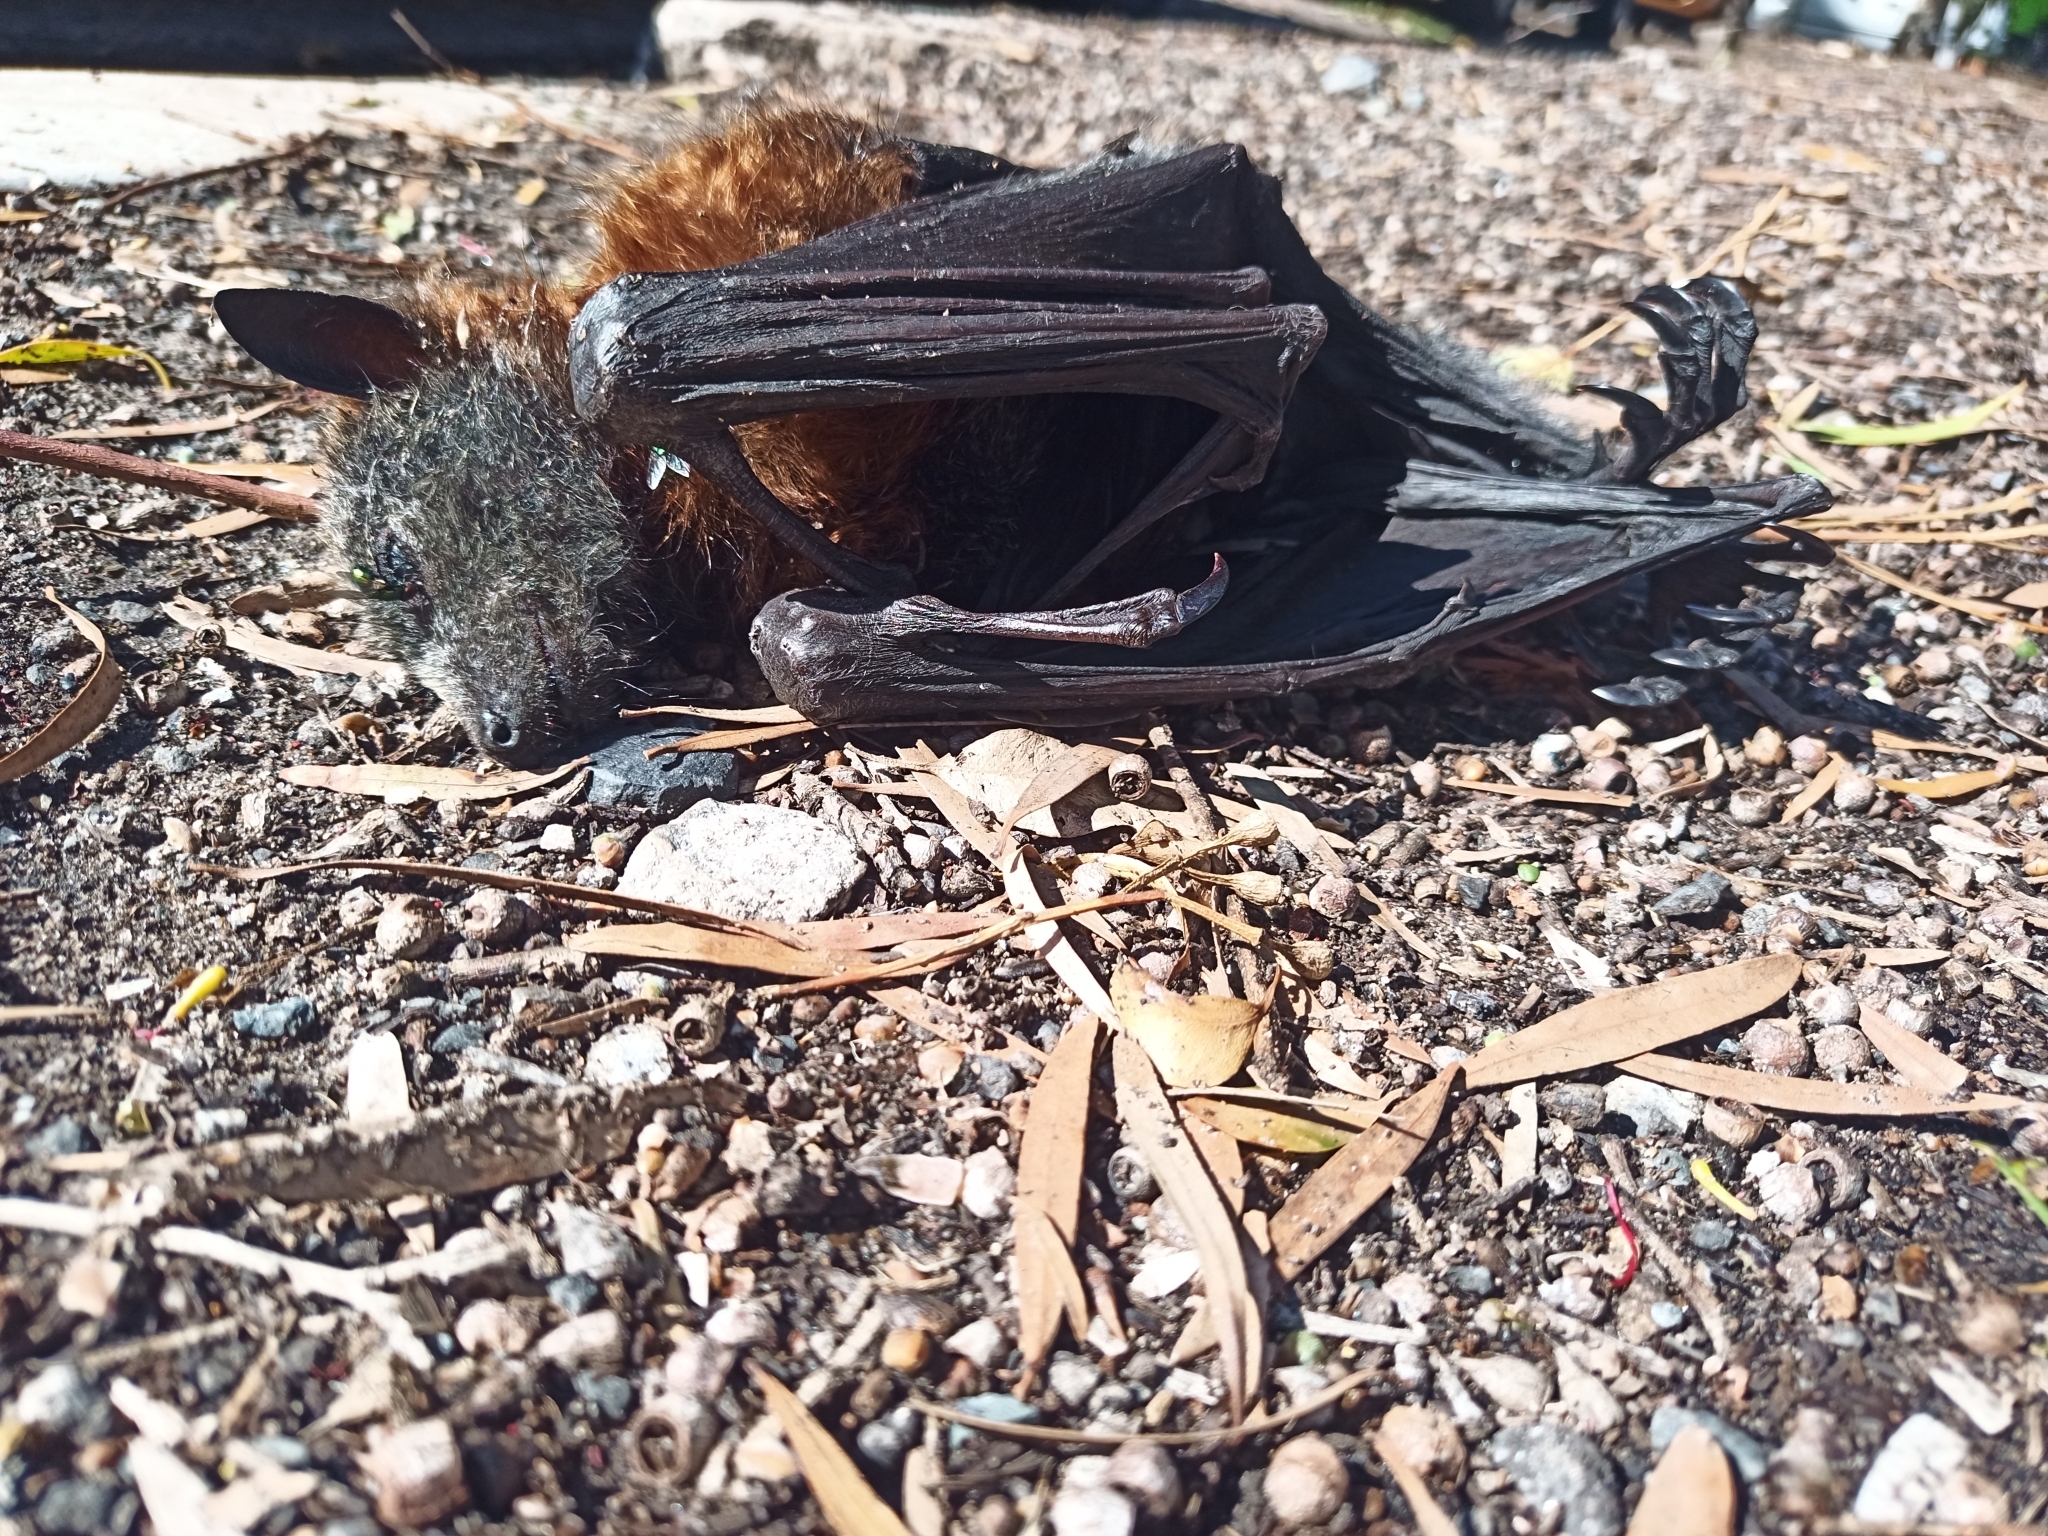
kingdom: Animalia
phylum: Chordata
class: Mammalia
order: Chiroptera
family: Pteropodidae
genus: Pteropus
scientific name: Pteropus poliocephalus
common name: Gray-headed flying fox
